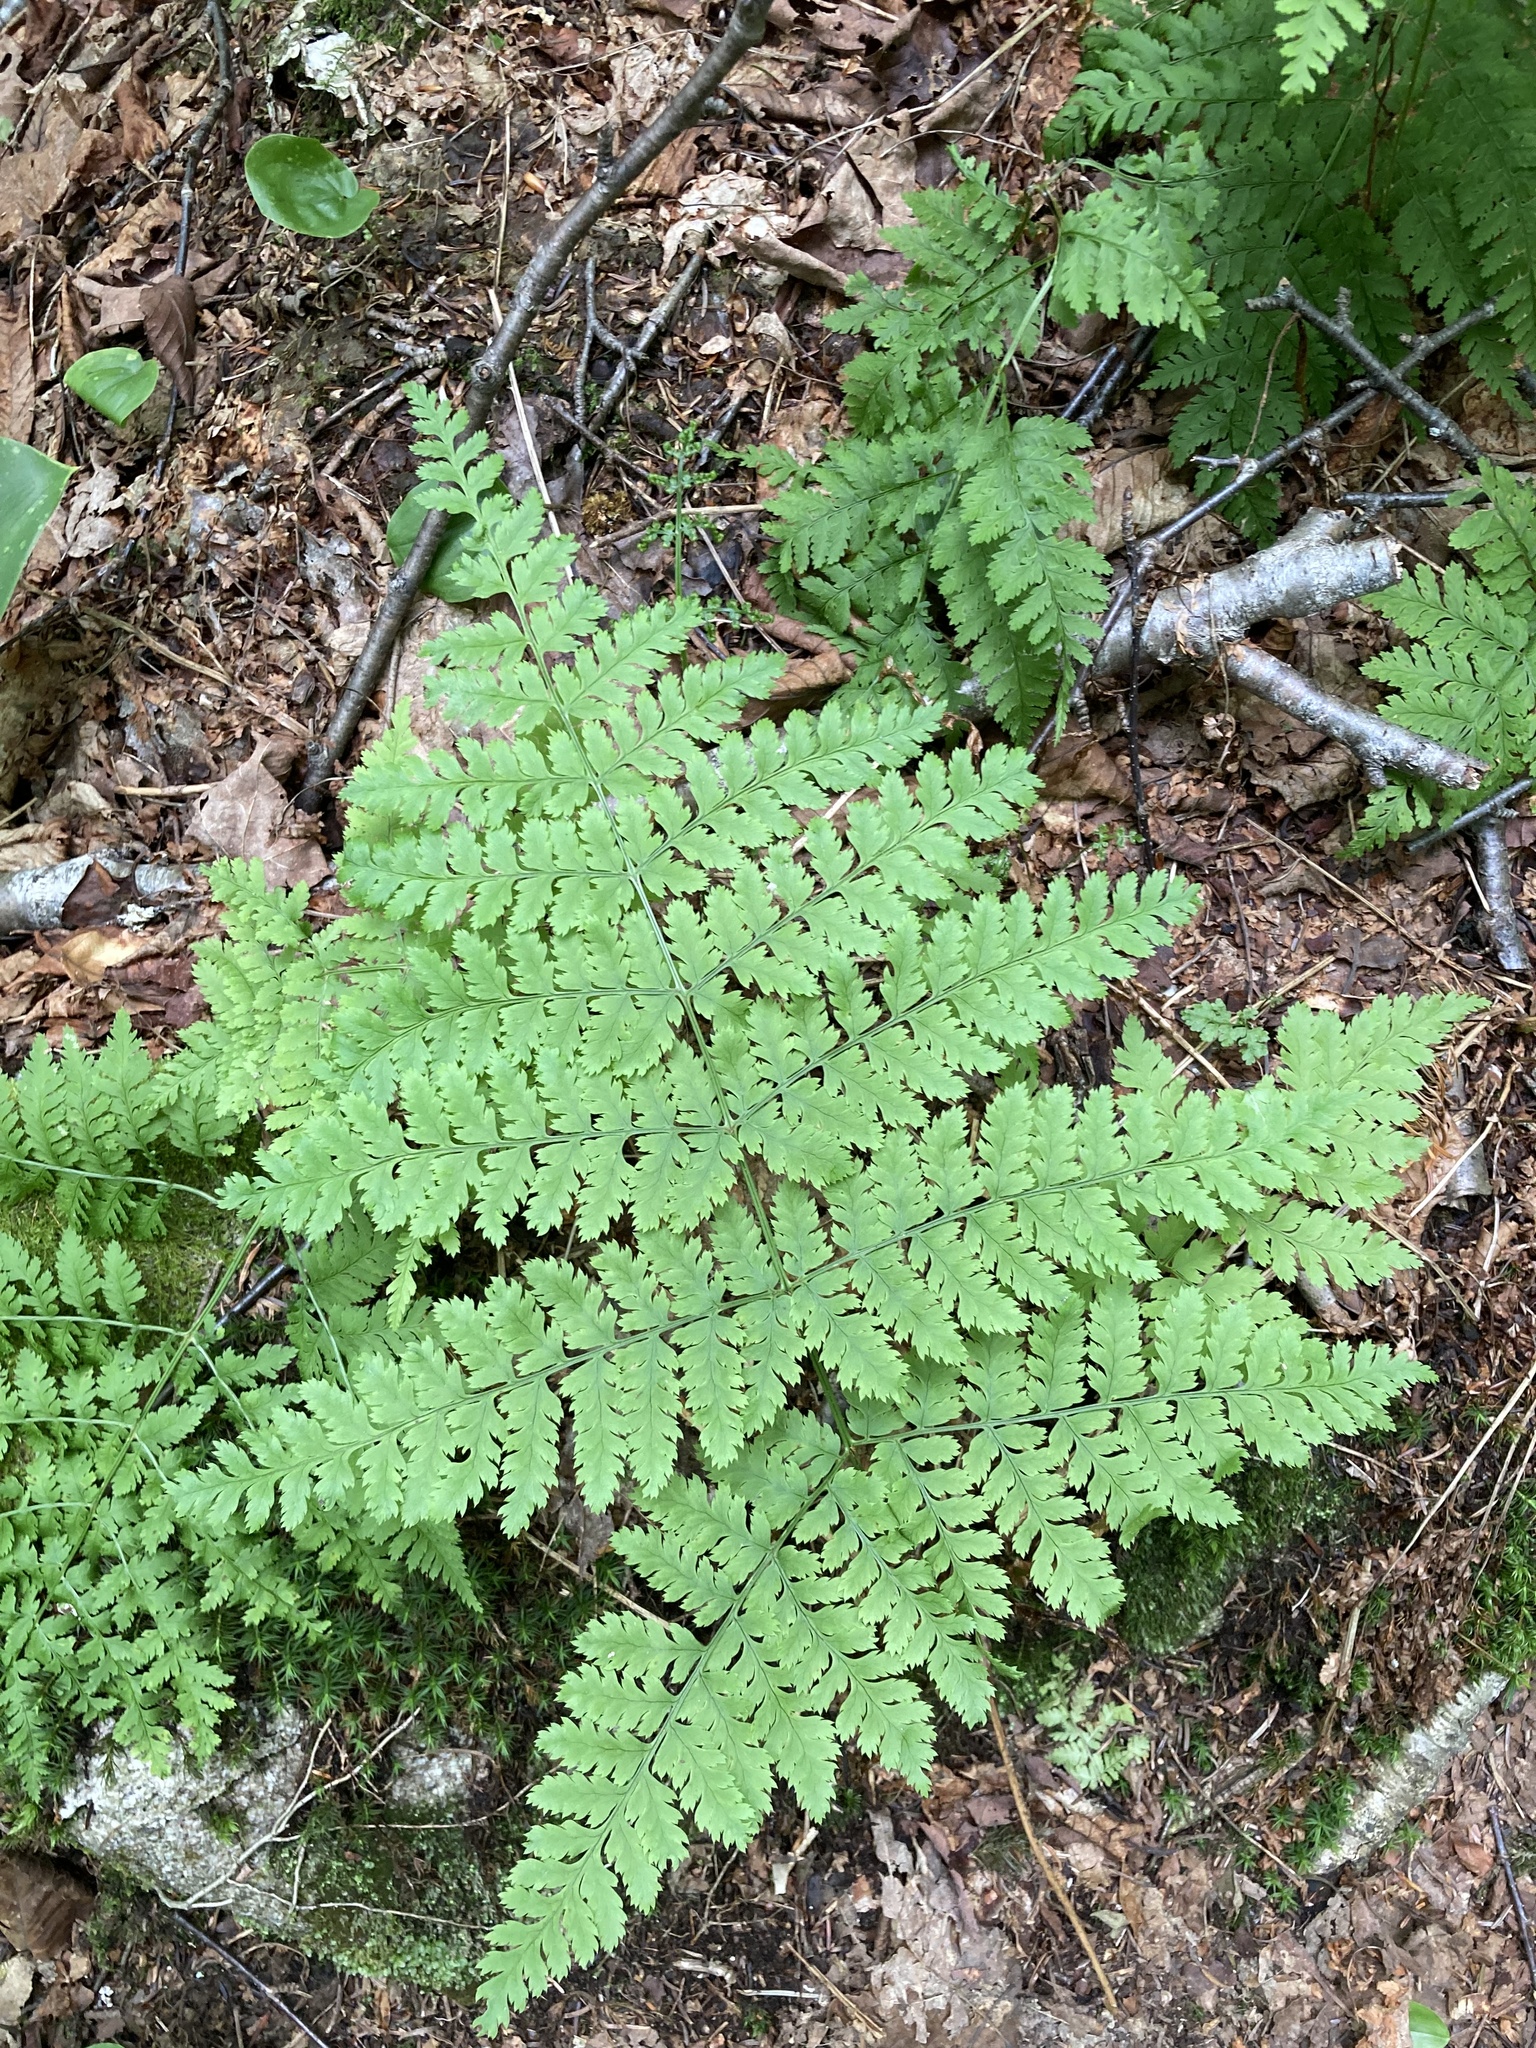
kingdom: Plantae
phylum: Tracheophyta
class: Polypodiopsida
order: Polypodiales
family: Dryopteridaceae
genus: Dryopteris
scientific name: Dryopteris campyloptera
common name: Mountain wood fern
